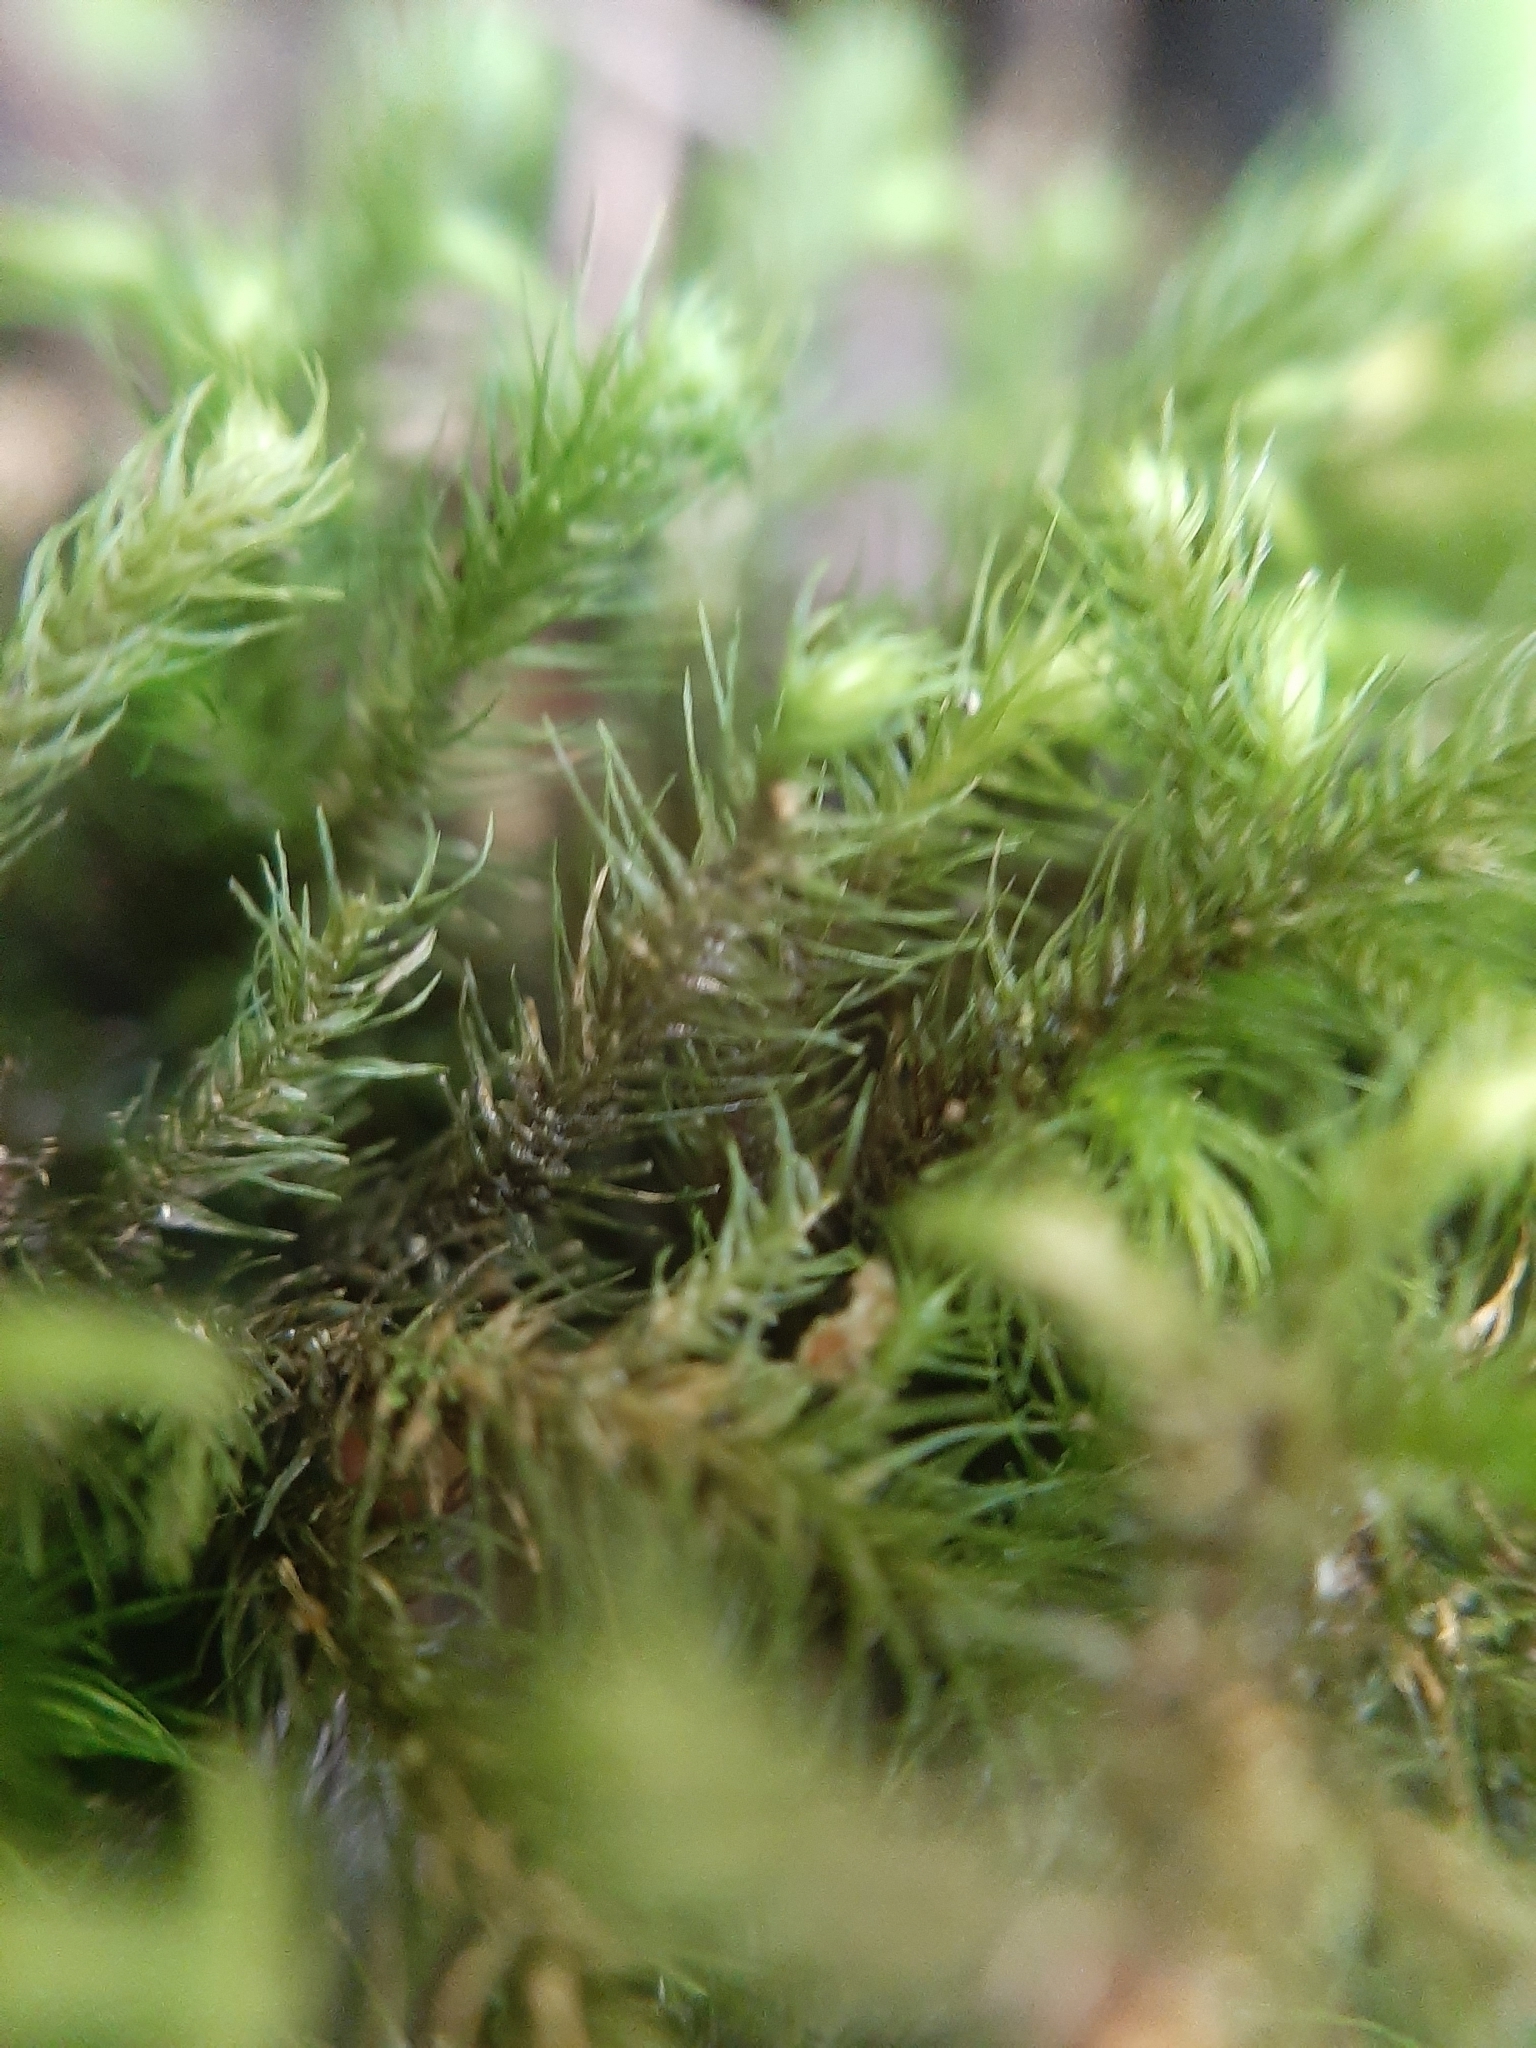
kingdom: Plantae
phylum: Bryophyta
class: Bryopsida
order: Hypnales
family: Neckeraceae
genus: Echinodiopsis
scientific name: Echinodiopsis hispida
